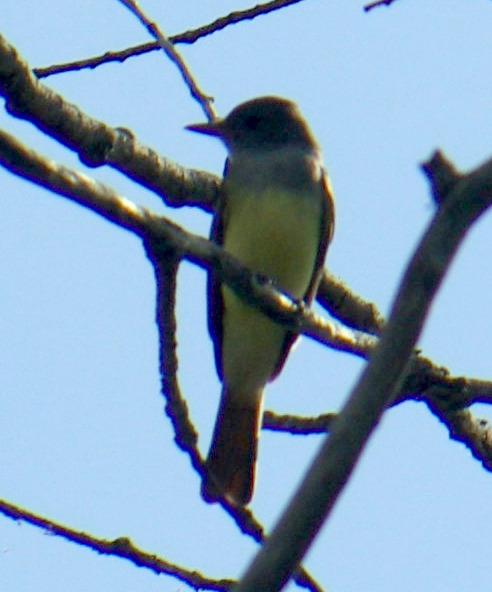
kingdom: Animalia
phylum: Chordata
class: Aves
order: Passeriformes
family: Tyrannidae
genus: Myiarchus
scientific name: Myiarchus crinitus
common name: Great crested flycatcher
